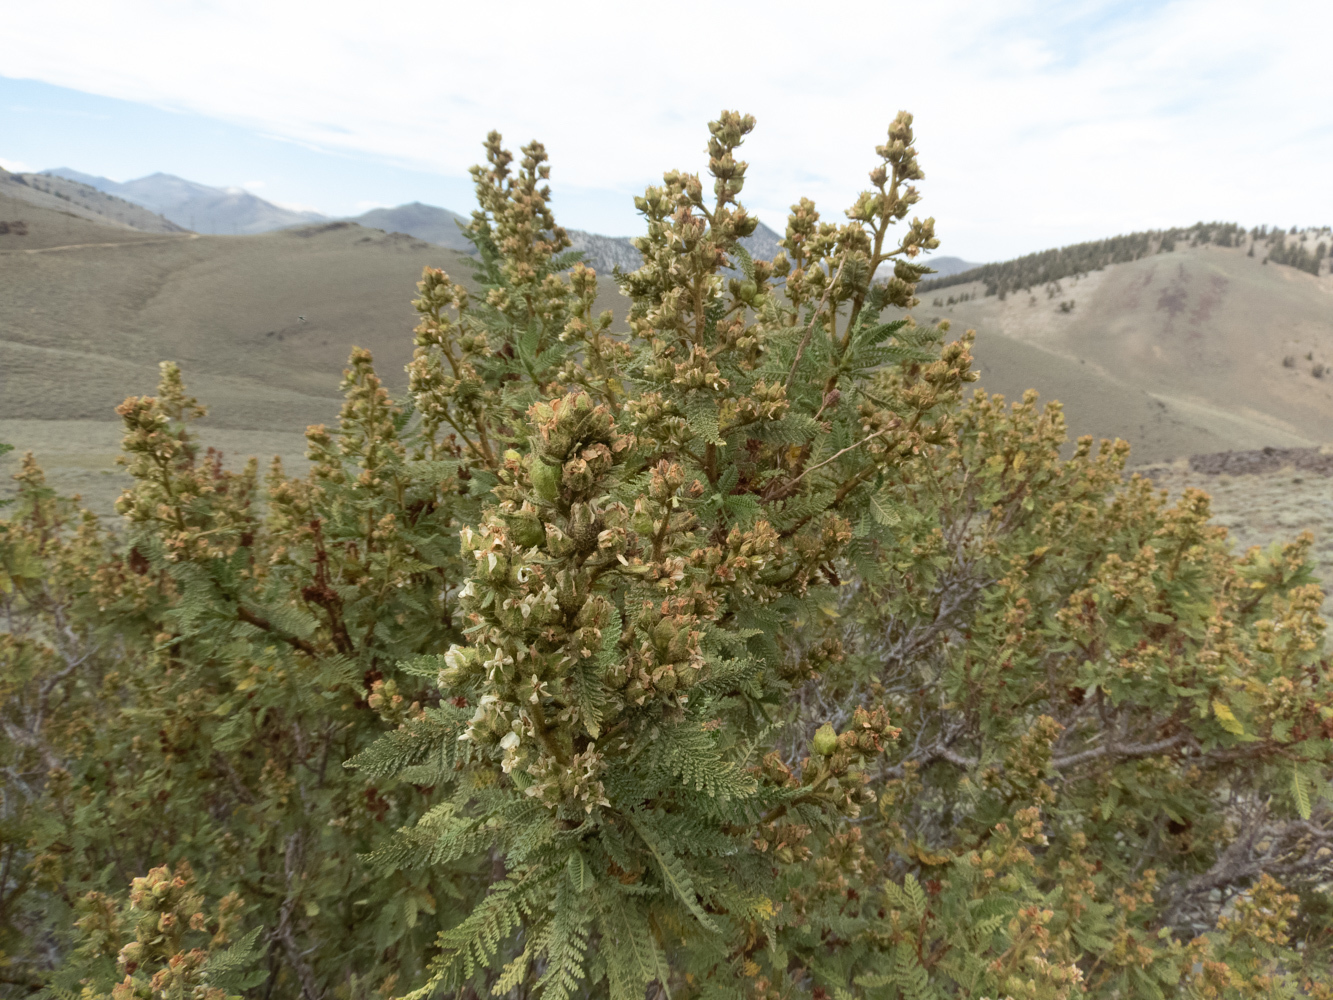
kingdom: Plantae
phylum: Tracheophyta
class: Magnoliopsida
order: Rosales
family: Rosaceae
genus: Chamaebatiaria
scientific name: Chamaebatiaria millefolium
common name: Fernbush
